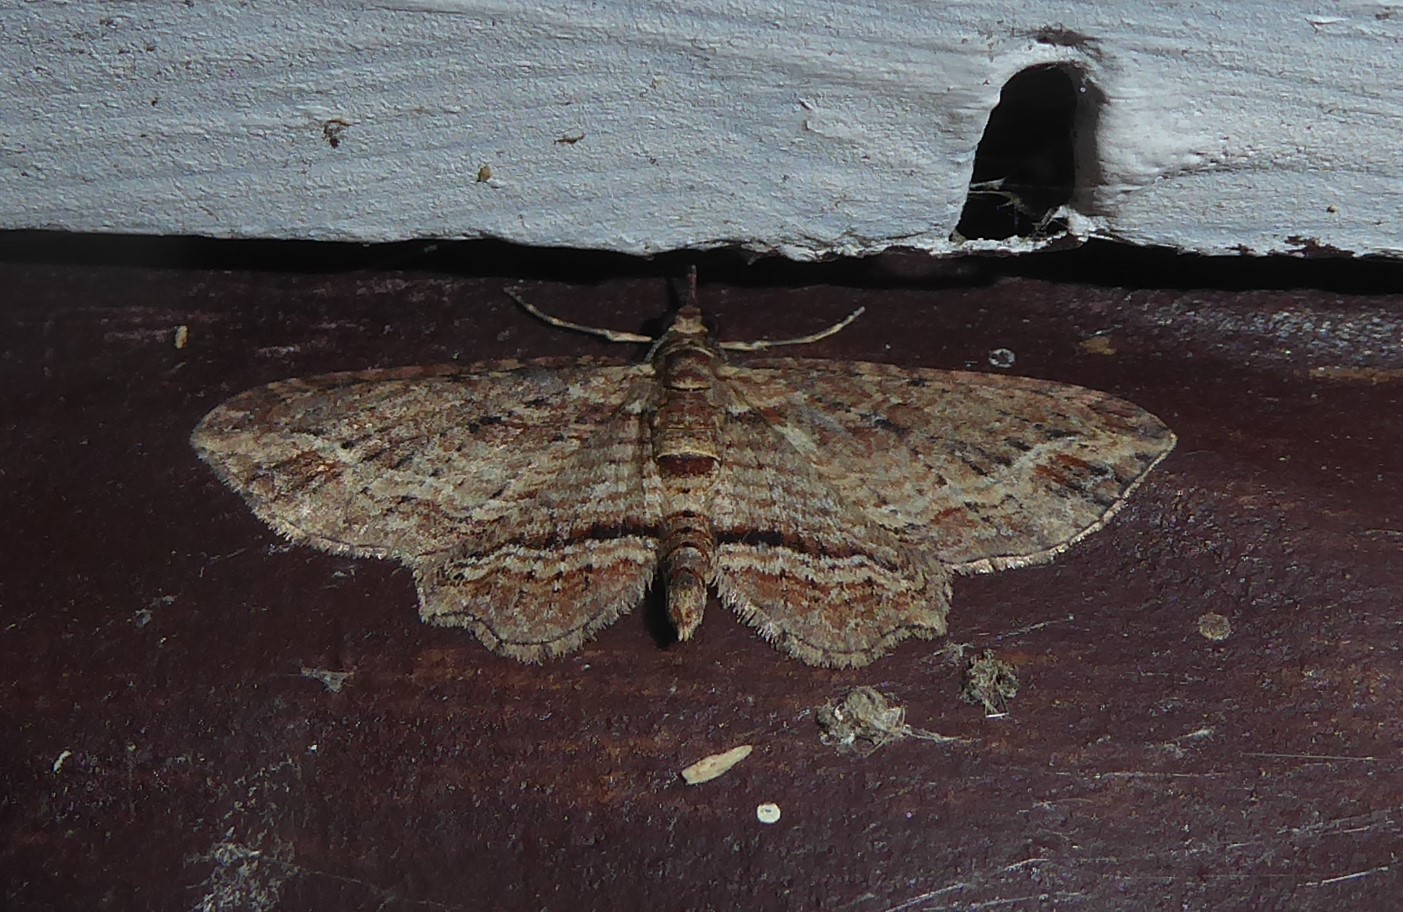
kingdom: Animalia
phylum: Arthropoda
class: Insecta
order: Lepidoptera
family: Geometridae
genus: Chloroclystis
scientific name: Chloroclystis filata
